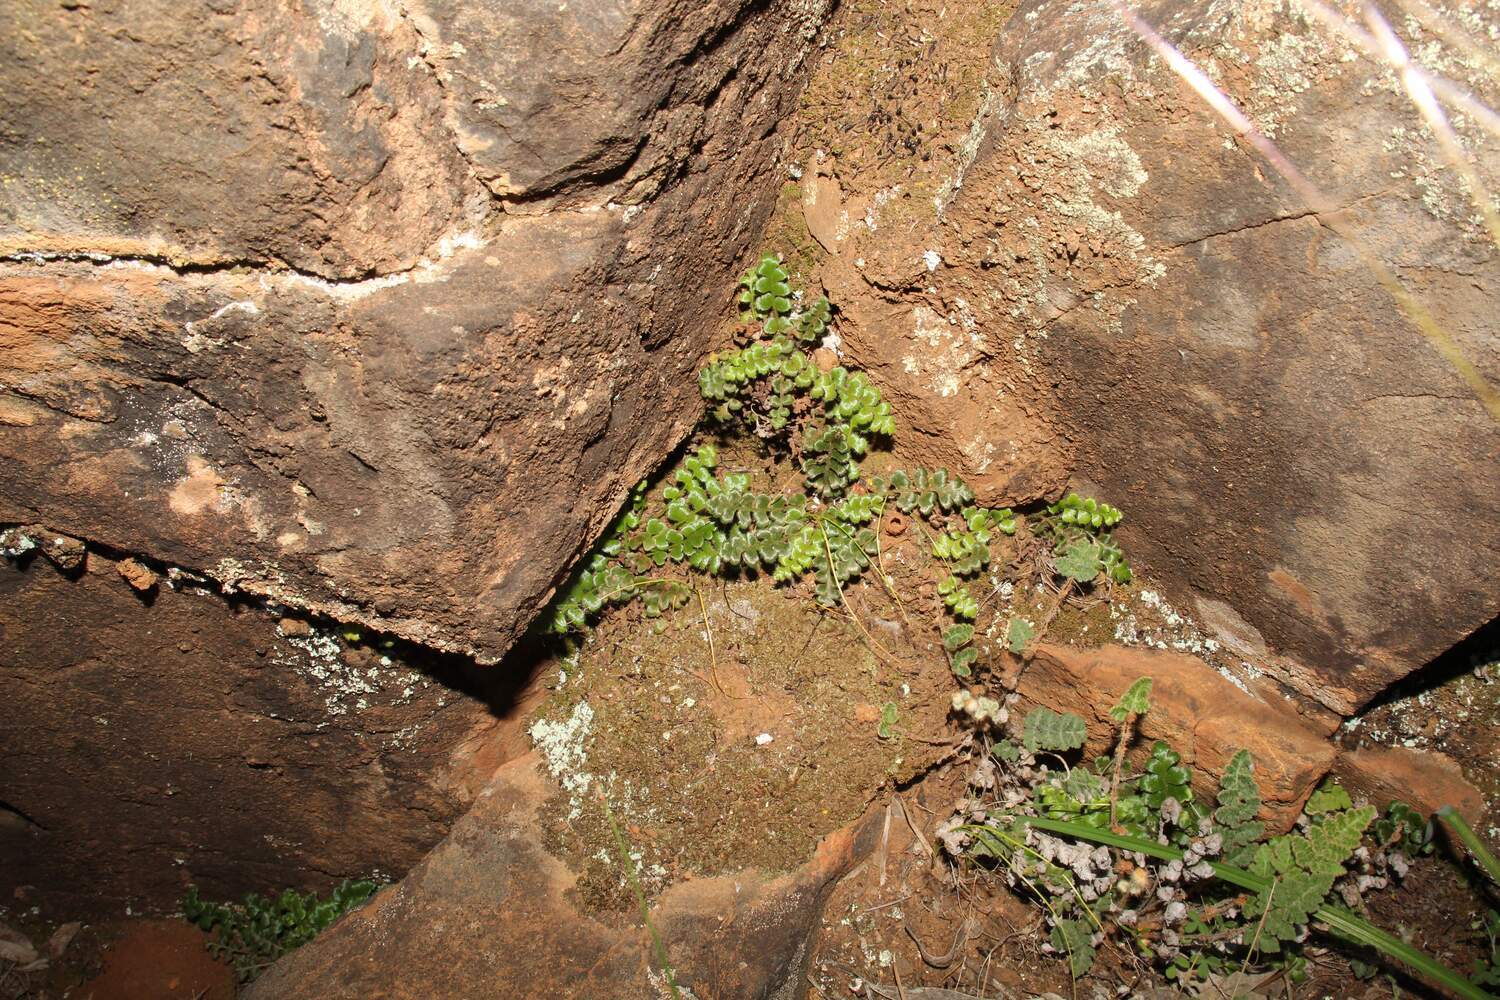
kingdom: Plantae
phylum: Tracheophyta
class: Polypodiopsida
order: Polypodiales
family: Aspleniaceae
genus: Asplenium
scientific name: Asplenium subglandulosum
